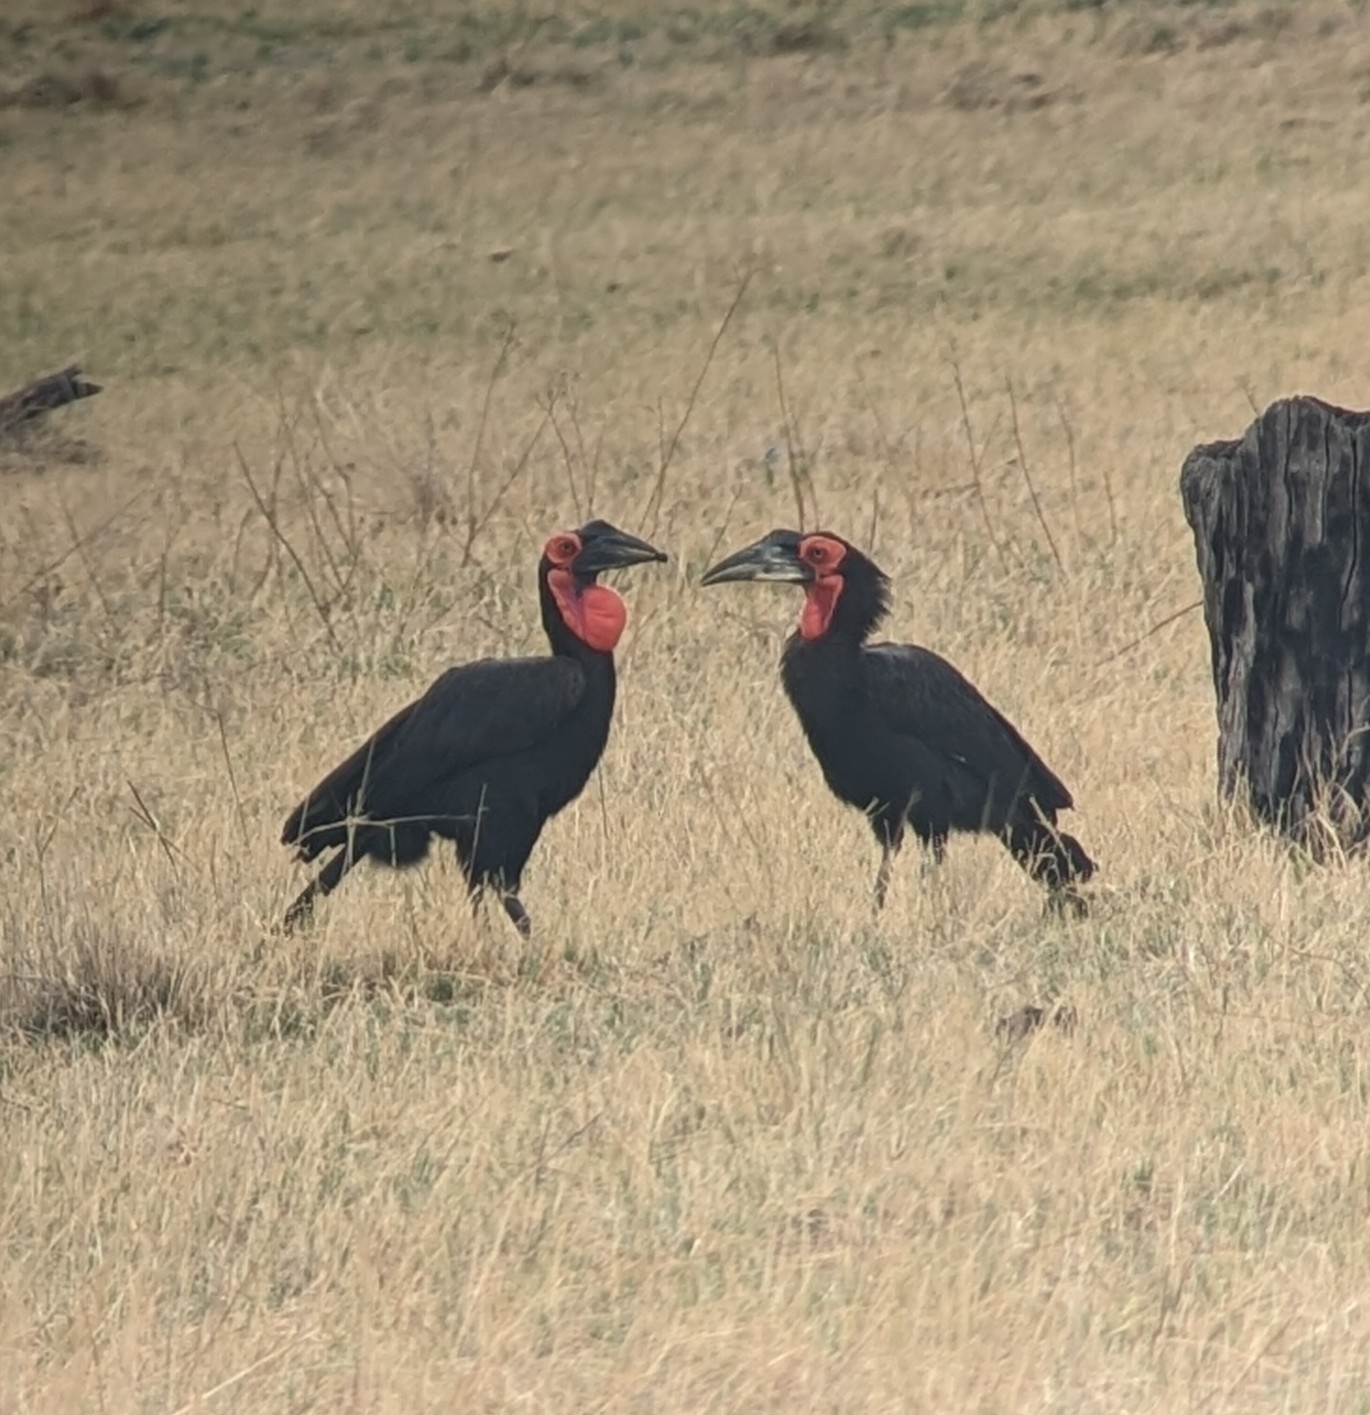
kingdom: Animalia
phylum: Chordata
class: Aves
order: Bucerotiformes
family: Bucorvidae
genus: Bucorvus
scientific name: Bucorvus leadbeateri
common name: Southern ground-hornbill
